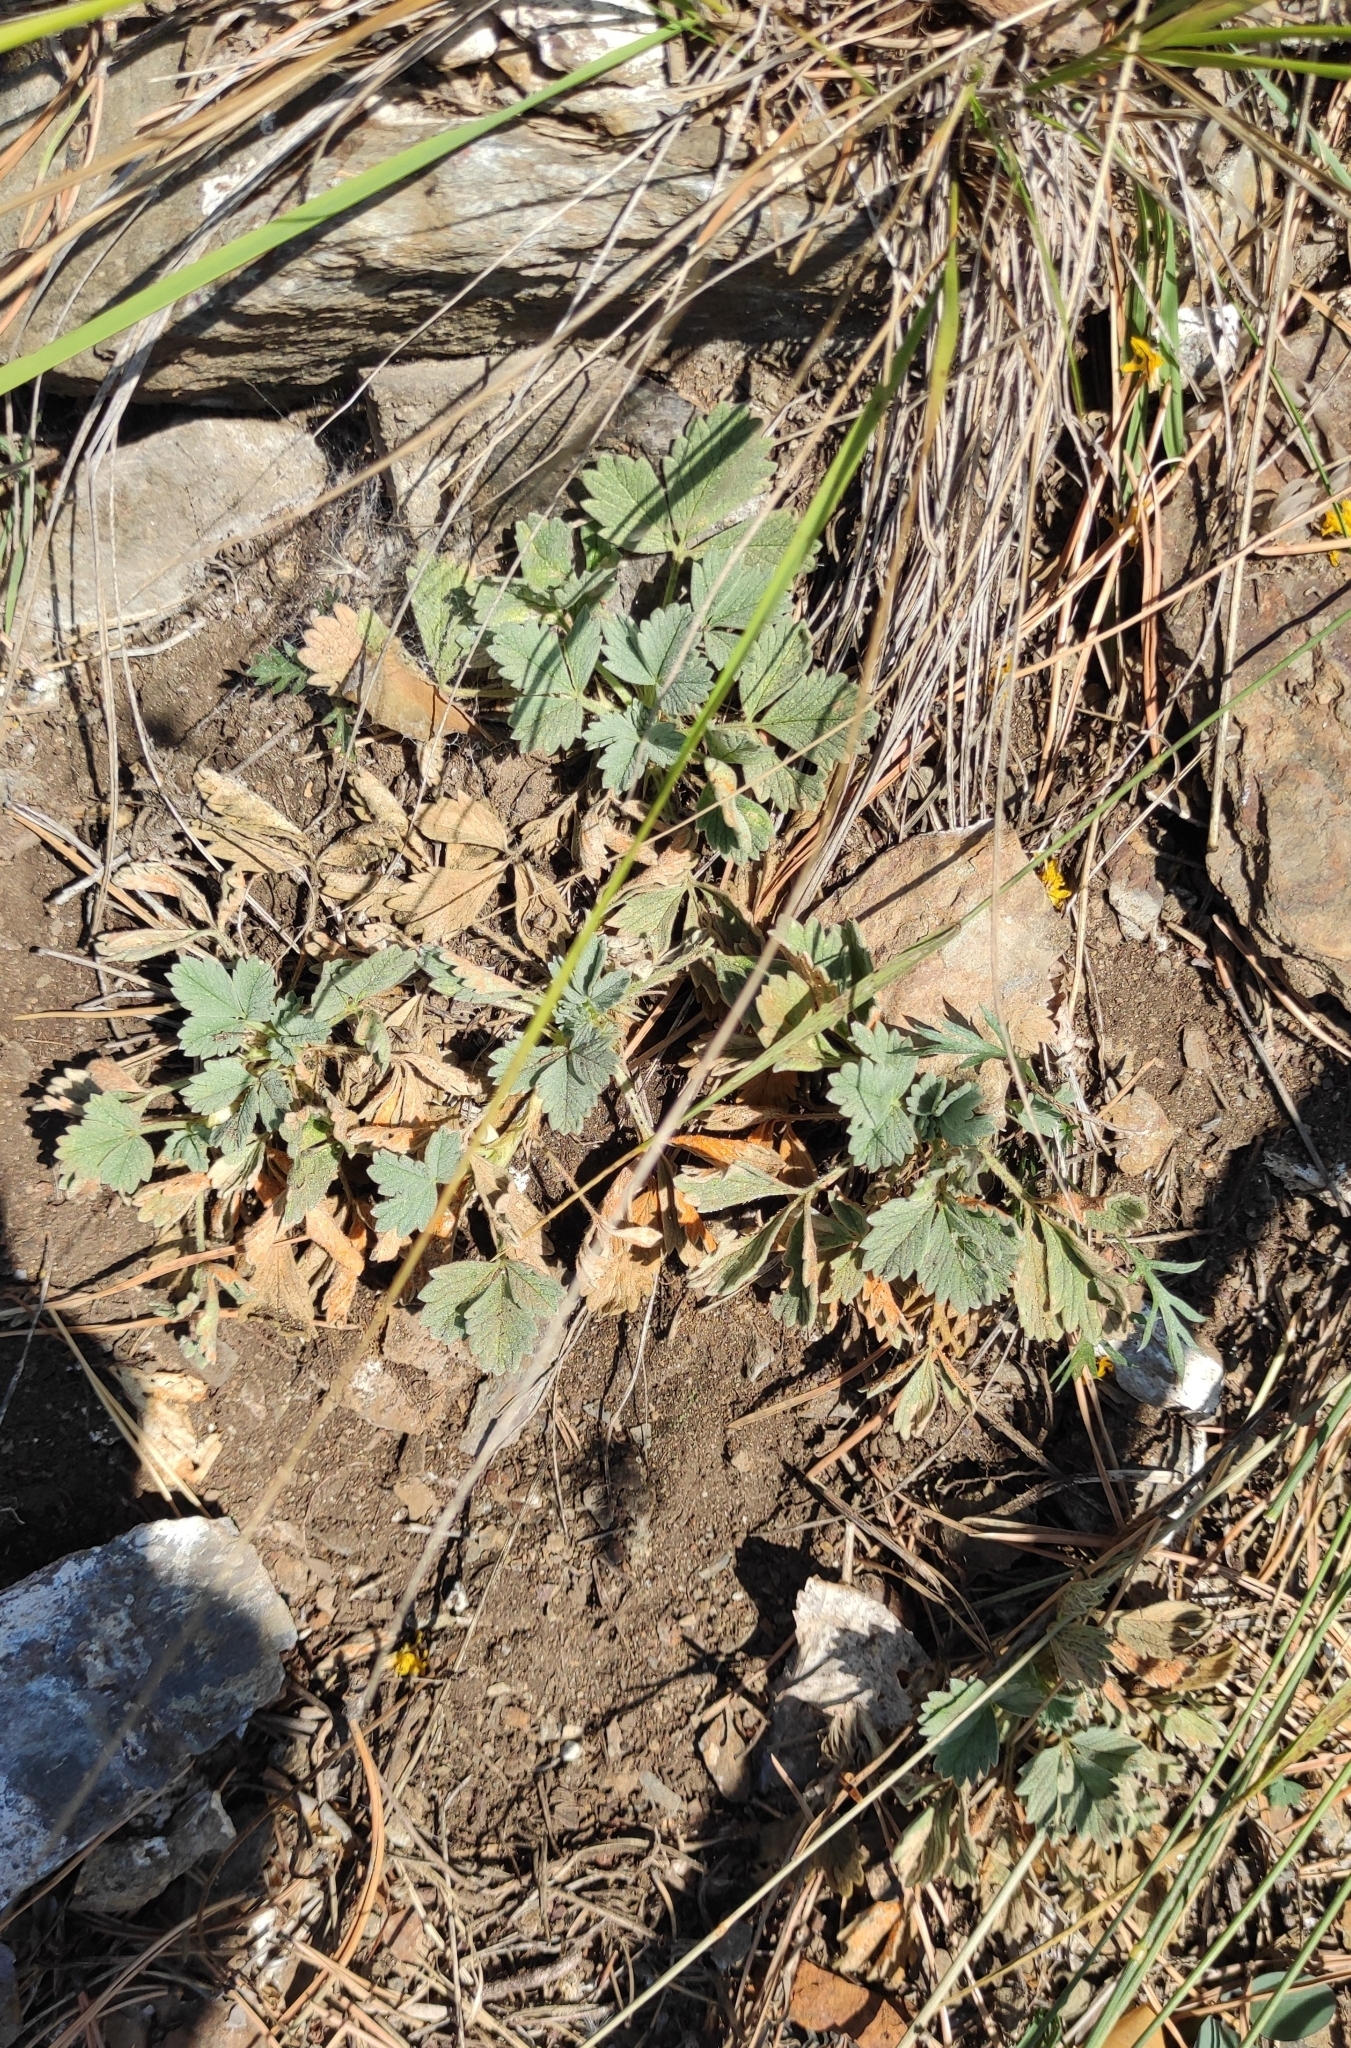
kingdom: Plantae
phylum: Tracheophyta
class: Magnoliopsida
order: Rosales
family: Rosaceae
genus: Potentilla
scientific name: Potentilla acaulis
